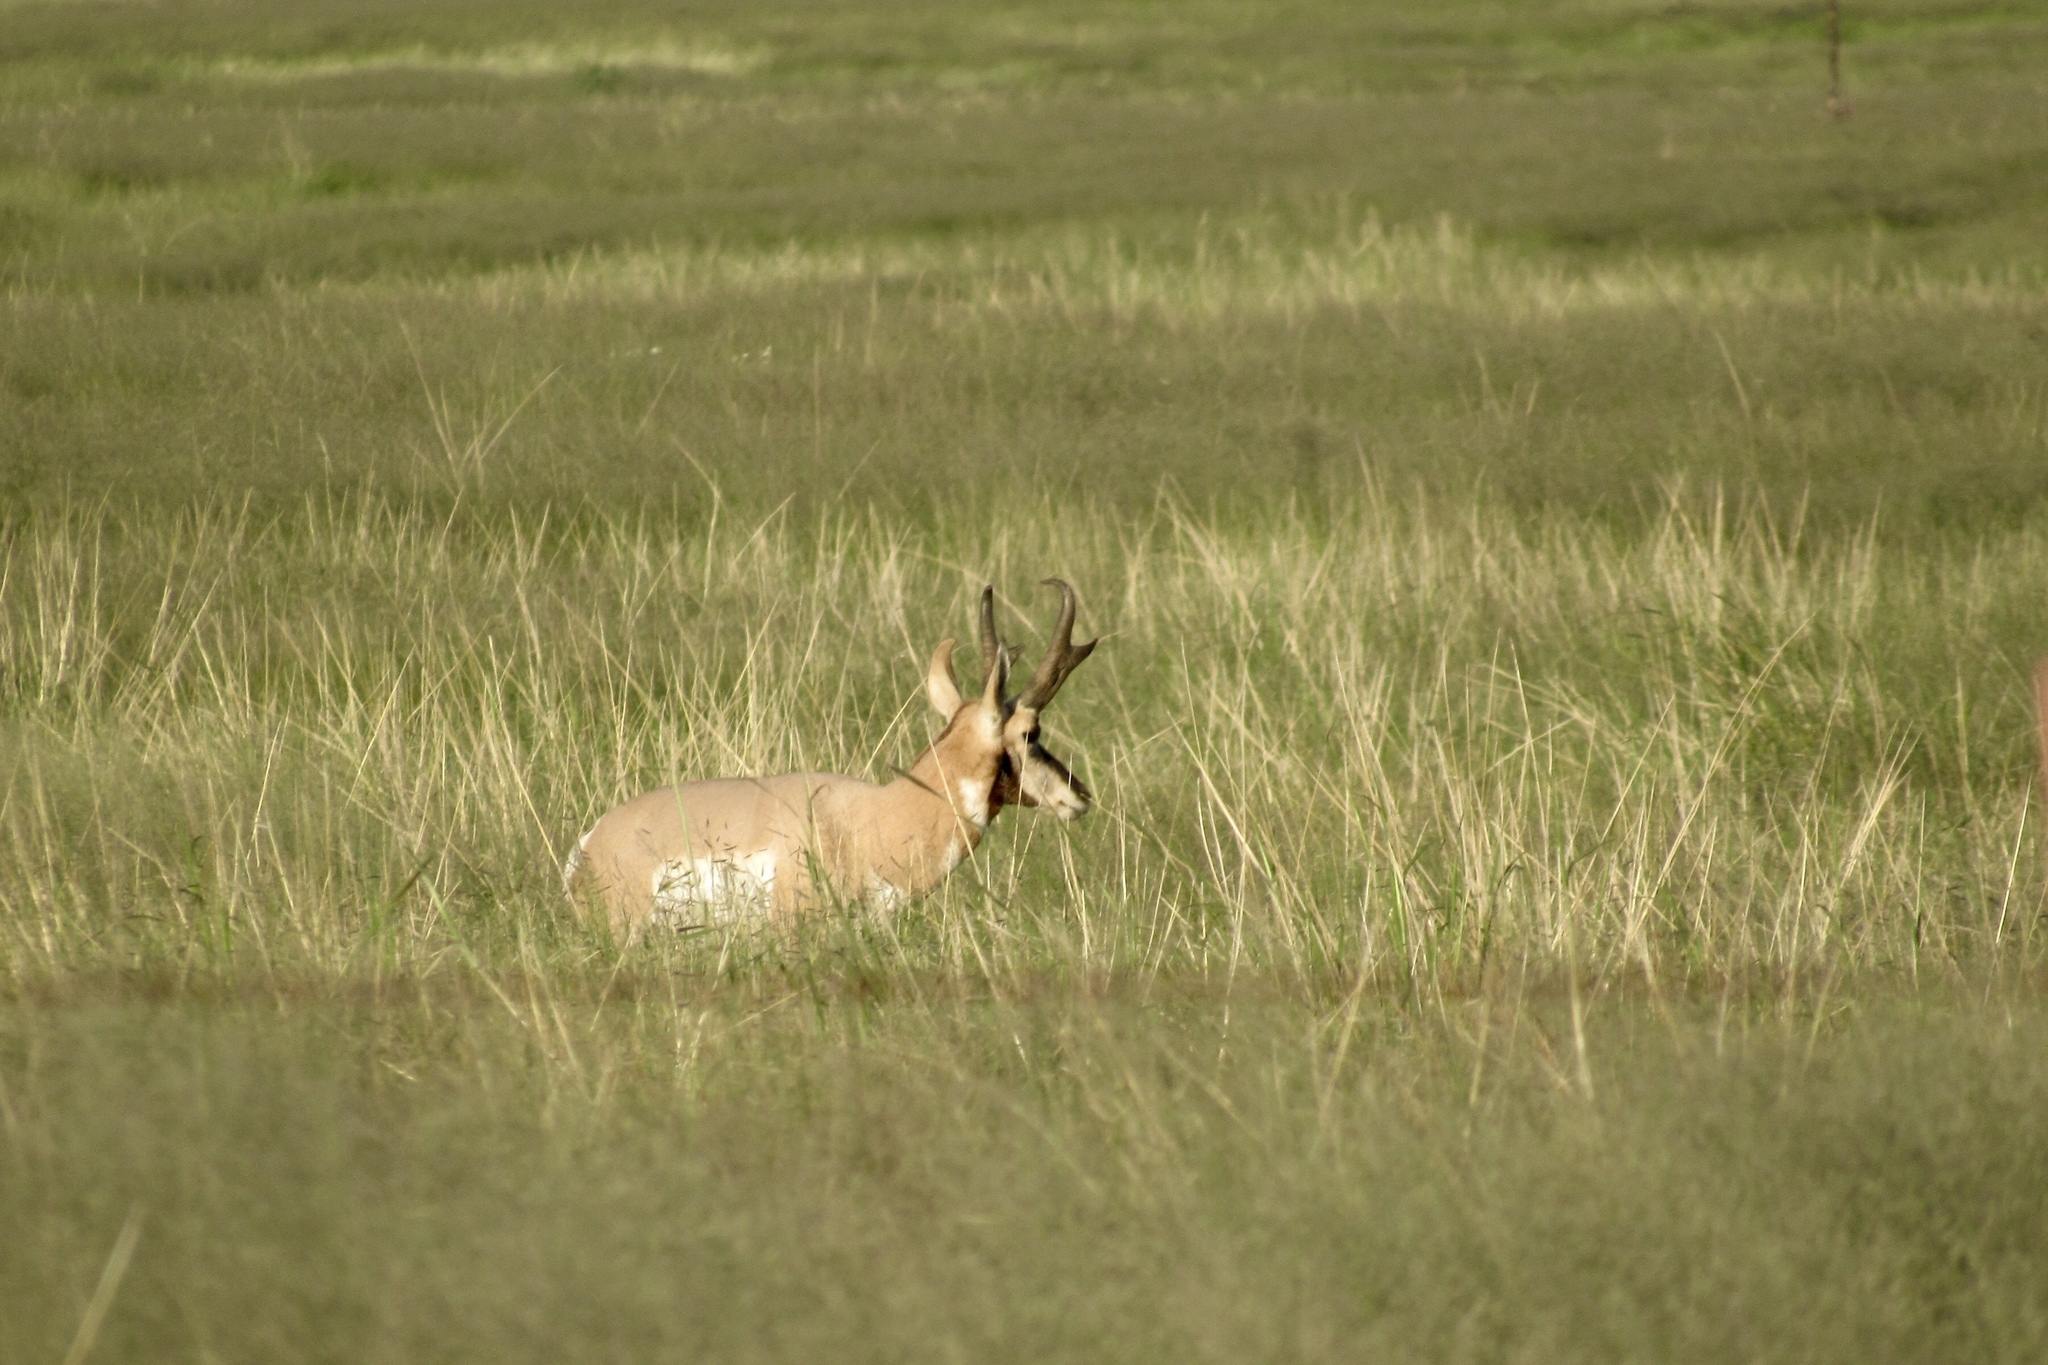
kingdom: Animalia
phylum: Chordata
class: Mammalia
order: Artiodactyla
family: Antilocapridae
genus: Antilocapra
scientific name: Antilocapra americana
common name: Pronghorn
